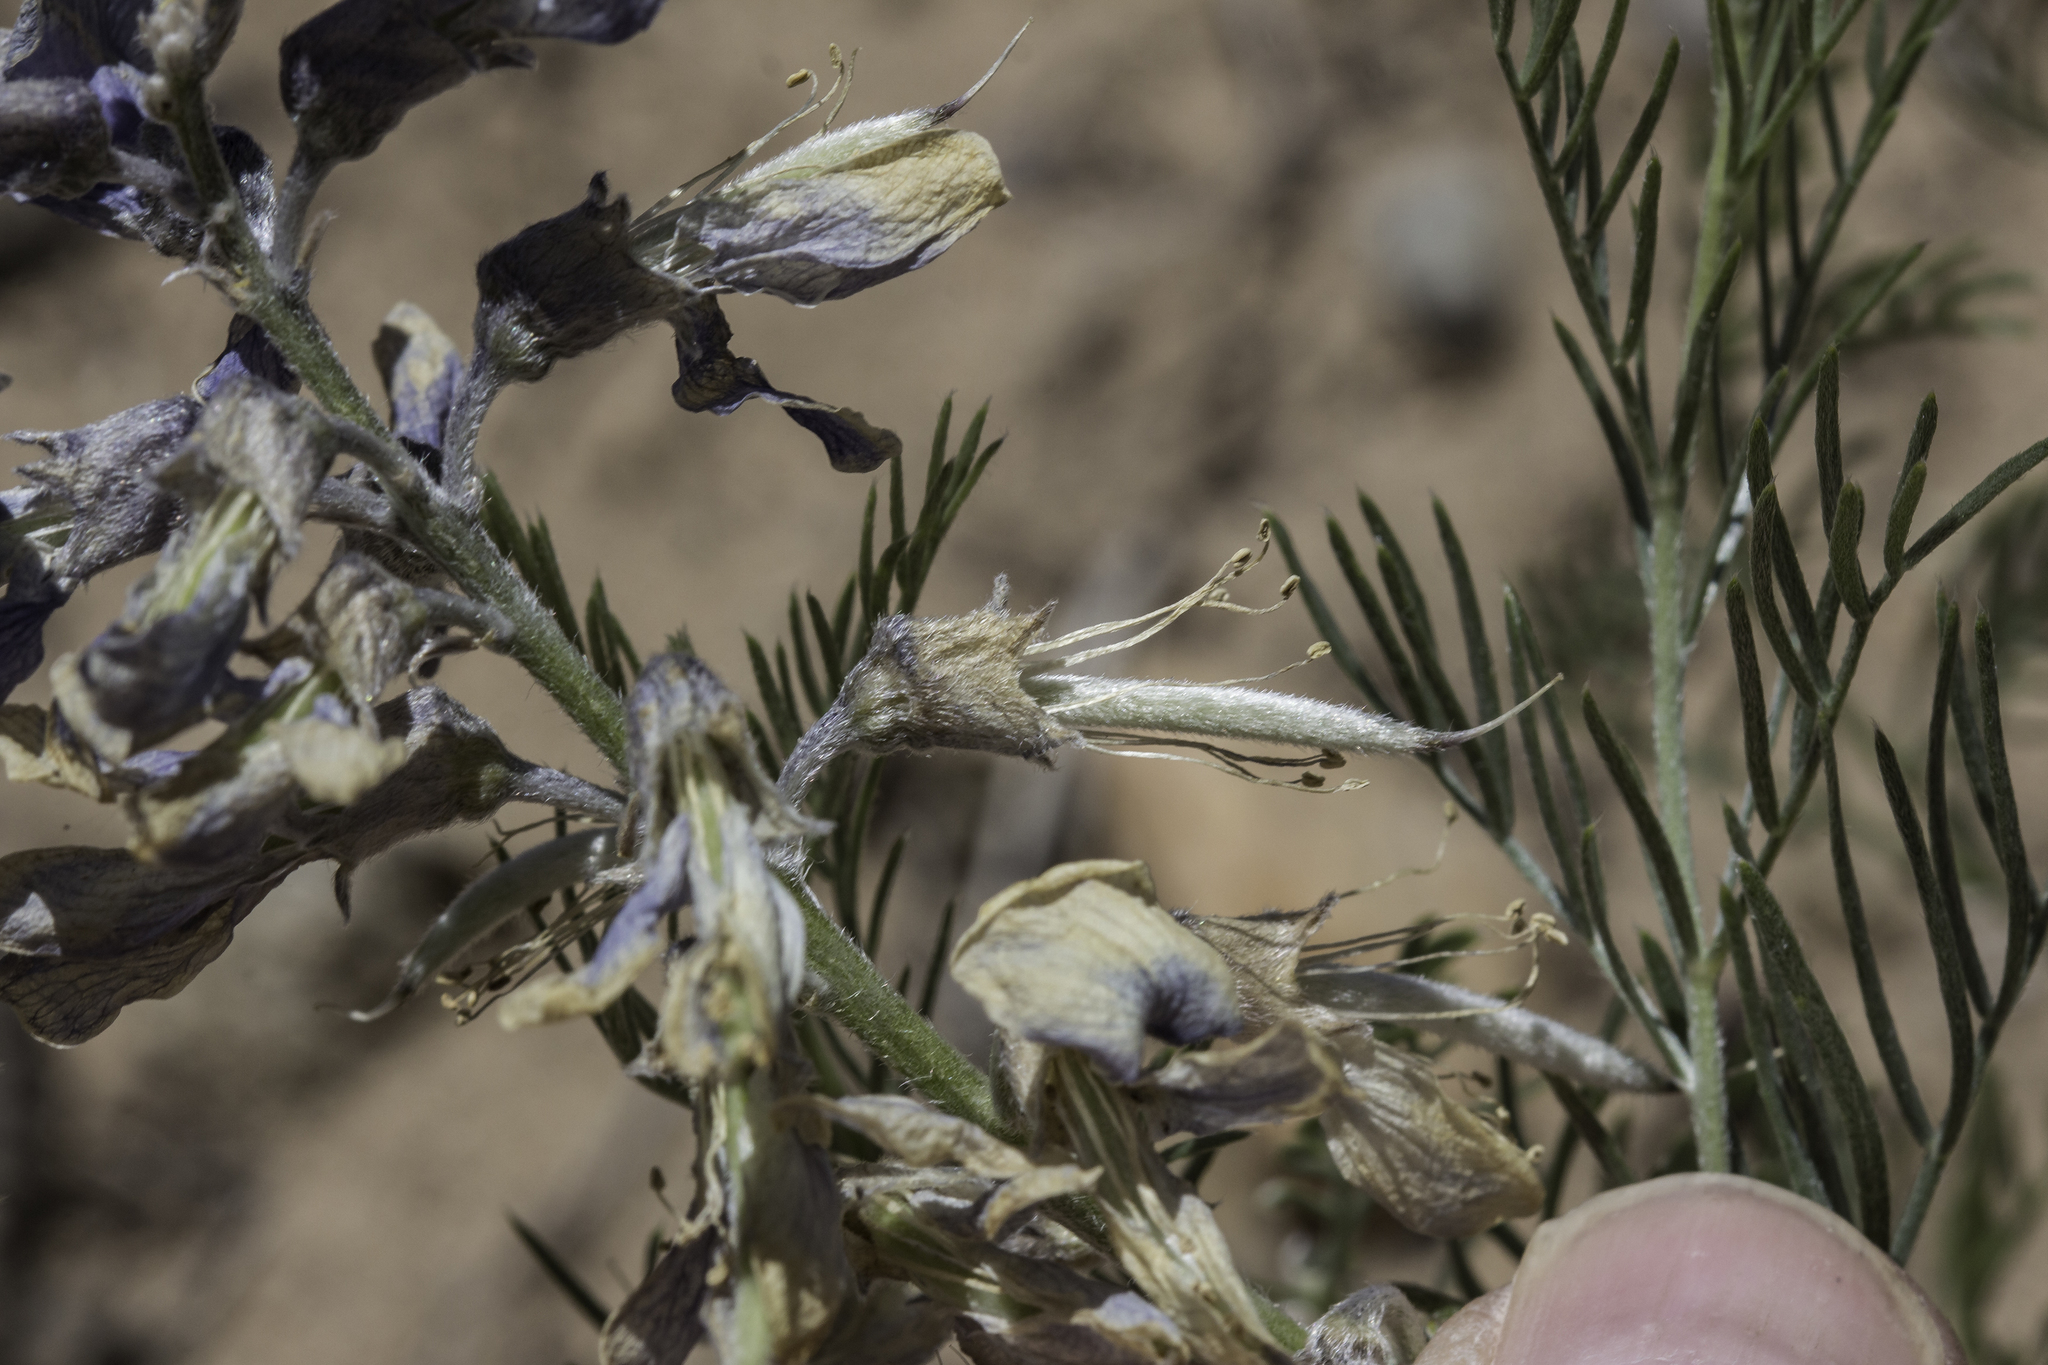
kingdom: Plantae
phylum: Tracheophyta
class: Magnoliopsida
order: Fabales
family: Fabaceae
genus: Sophora
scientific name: Sophora stenophylla
